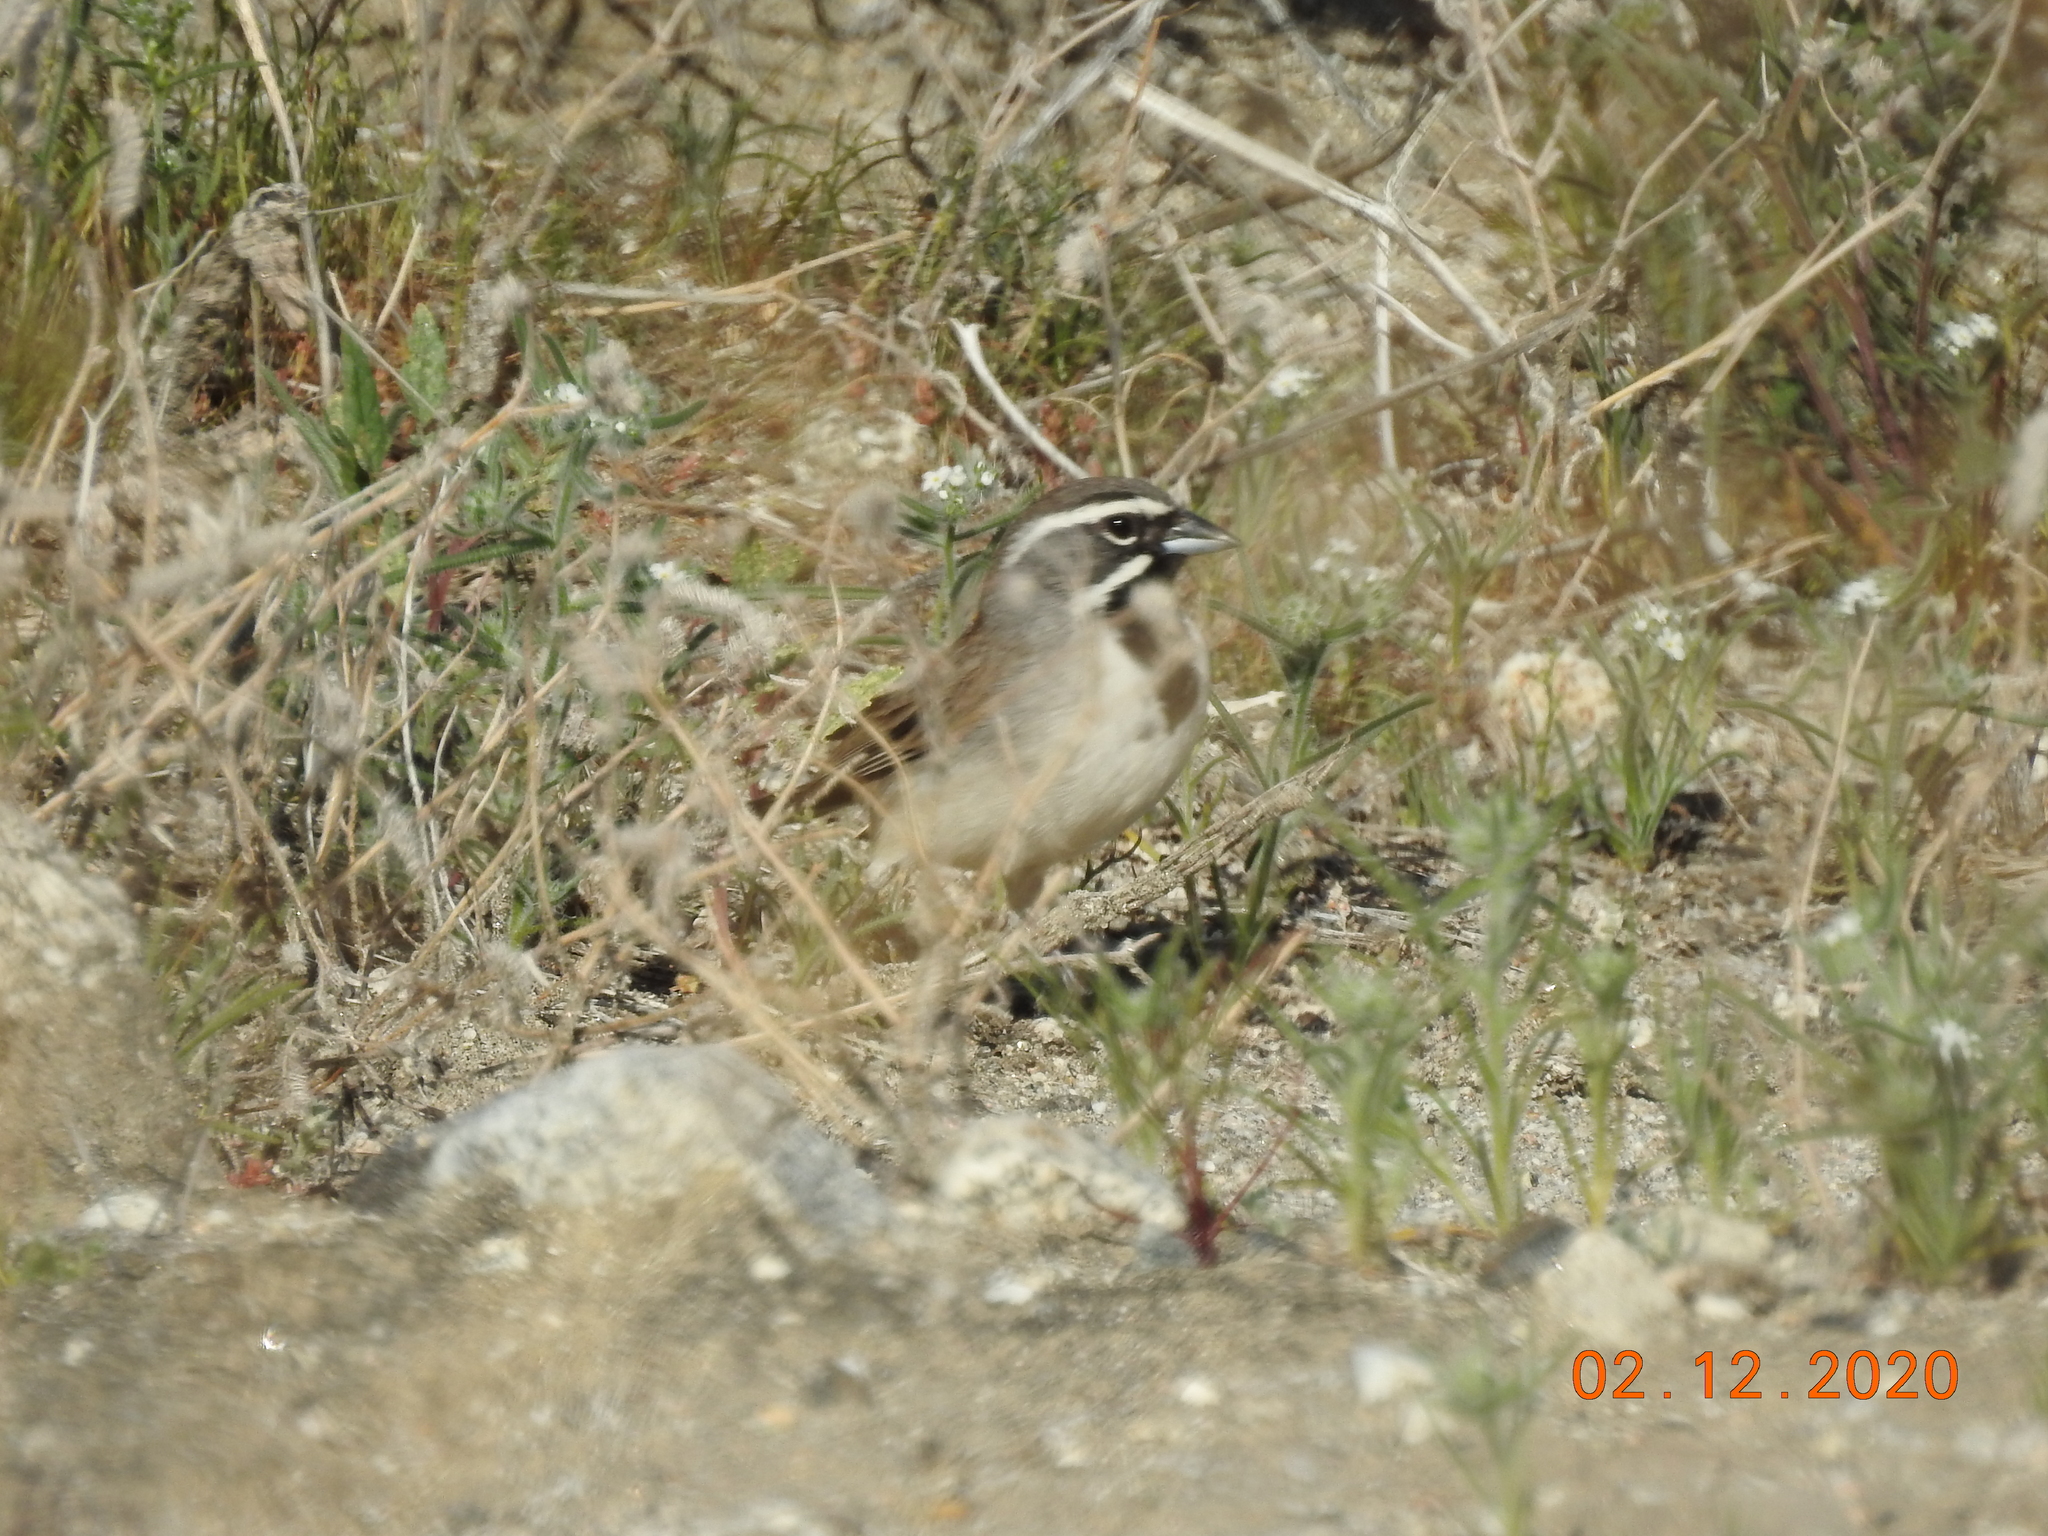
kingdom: Animalia
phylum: Chordata
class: Aves
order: Passeriformes
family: Passerellidae
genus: Amphispiza
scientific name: Amphispiza bilineata
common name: Black-throated sparrow
